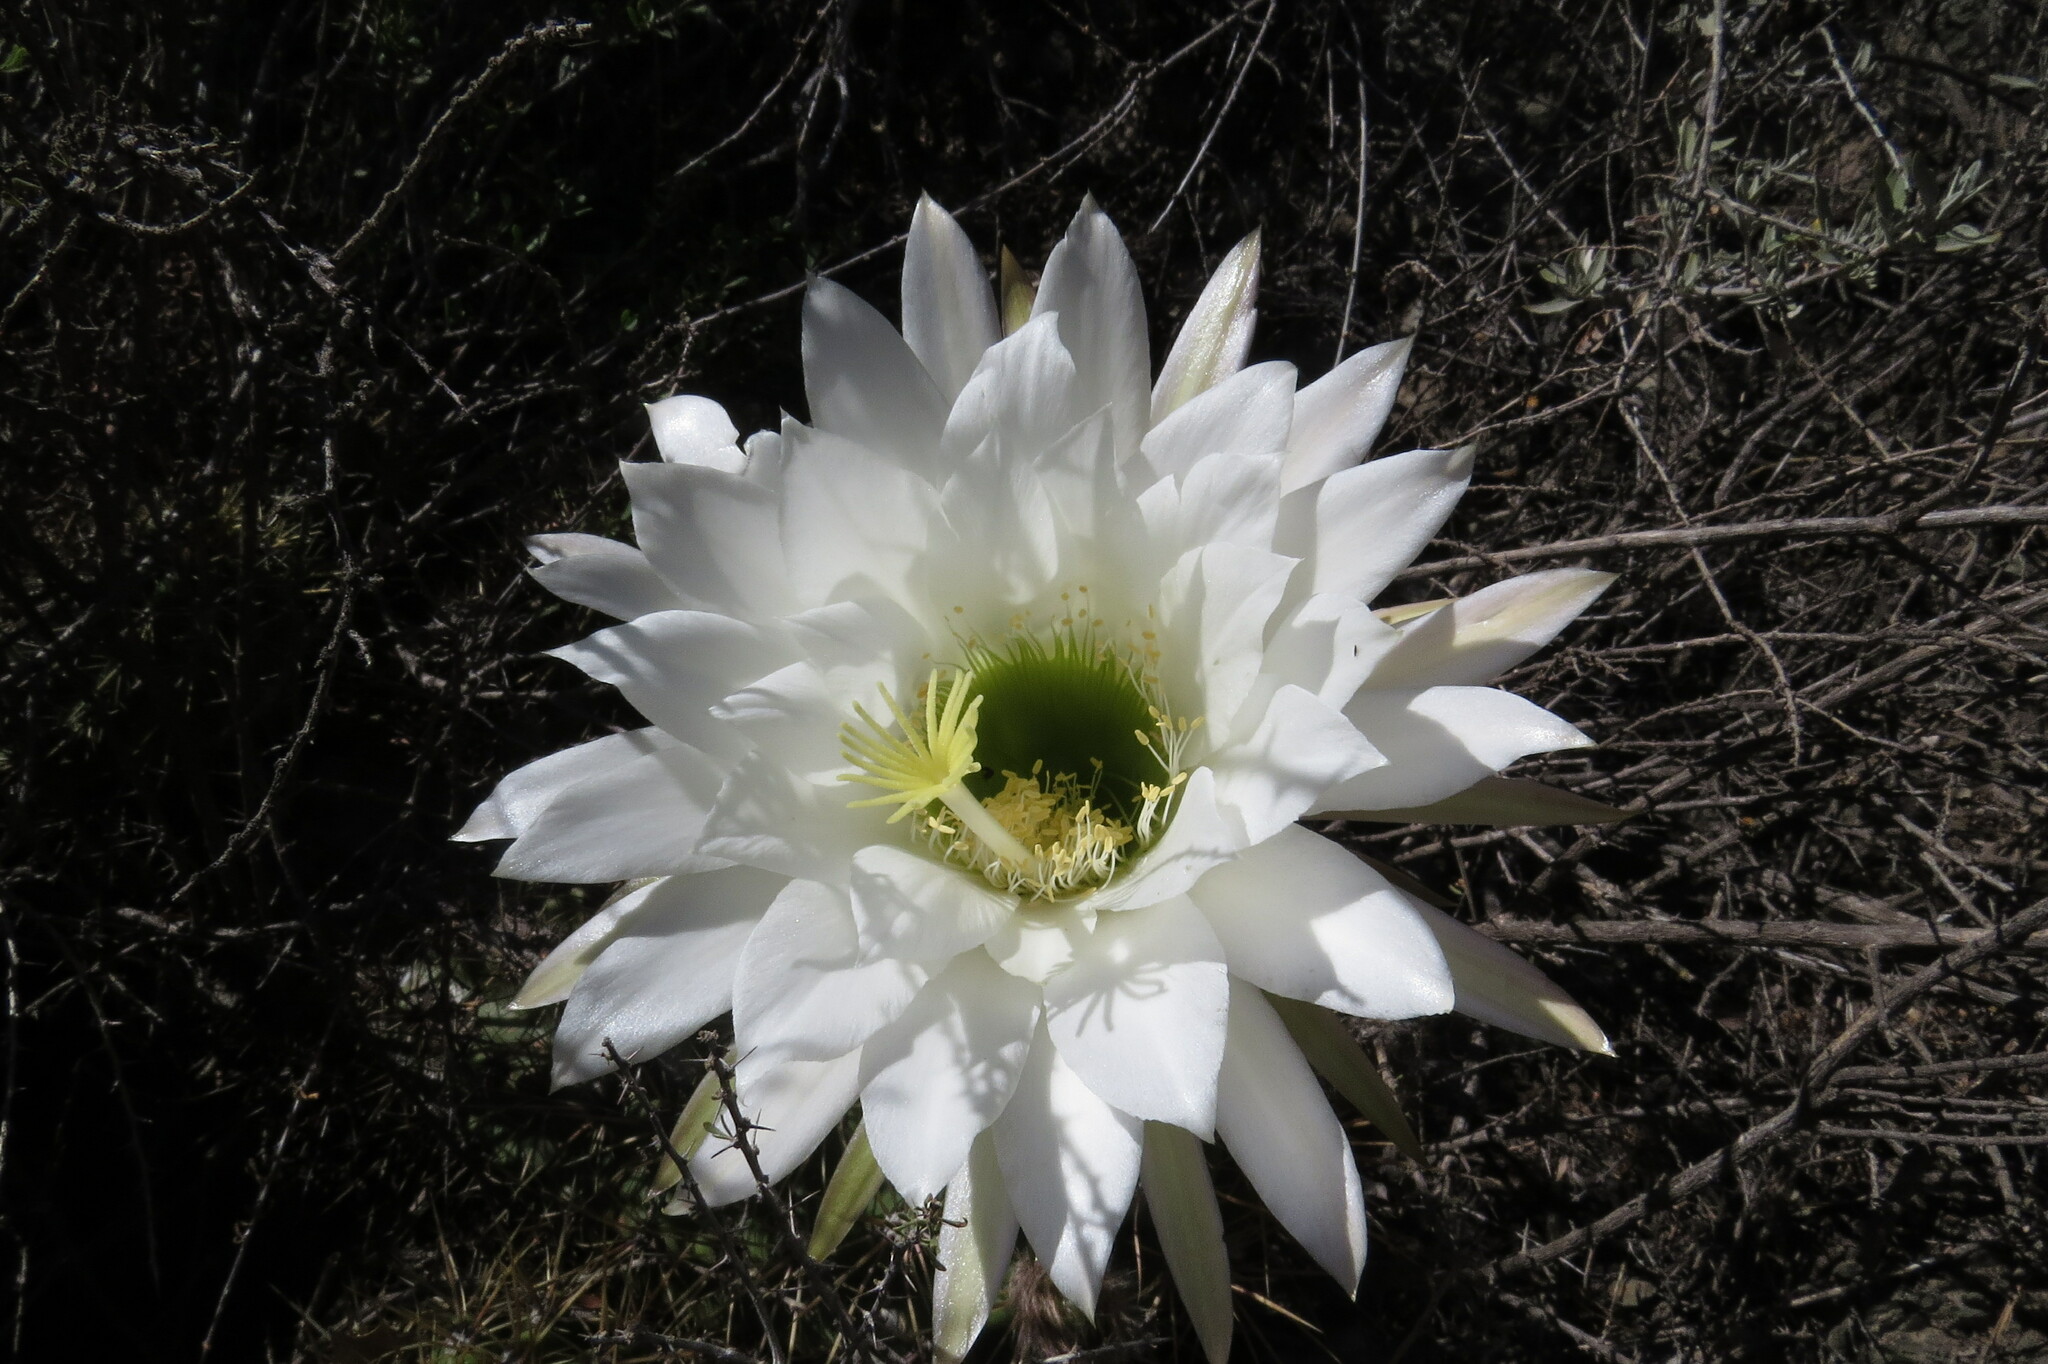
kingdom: Plantae
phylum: Tracheophyta
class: Magnoliopsida
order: Caryophyllales
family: Cactaceae
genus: Soehrensia
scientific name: Soehrensia candicans
